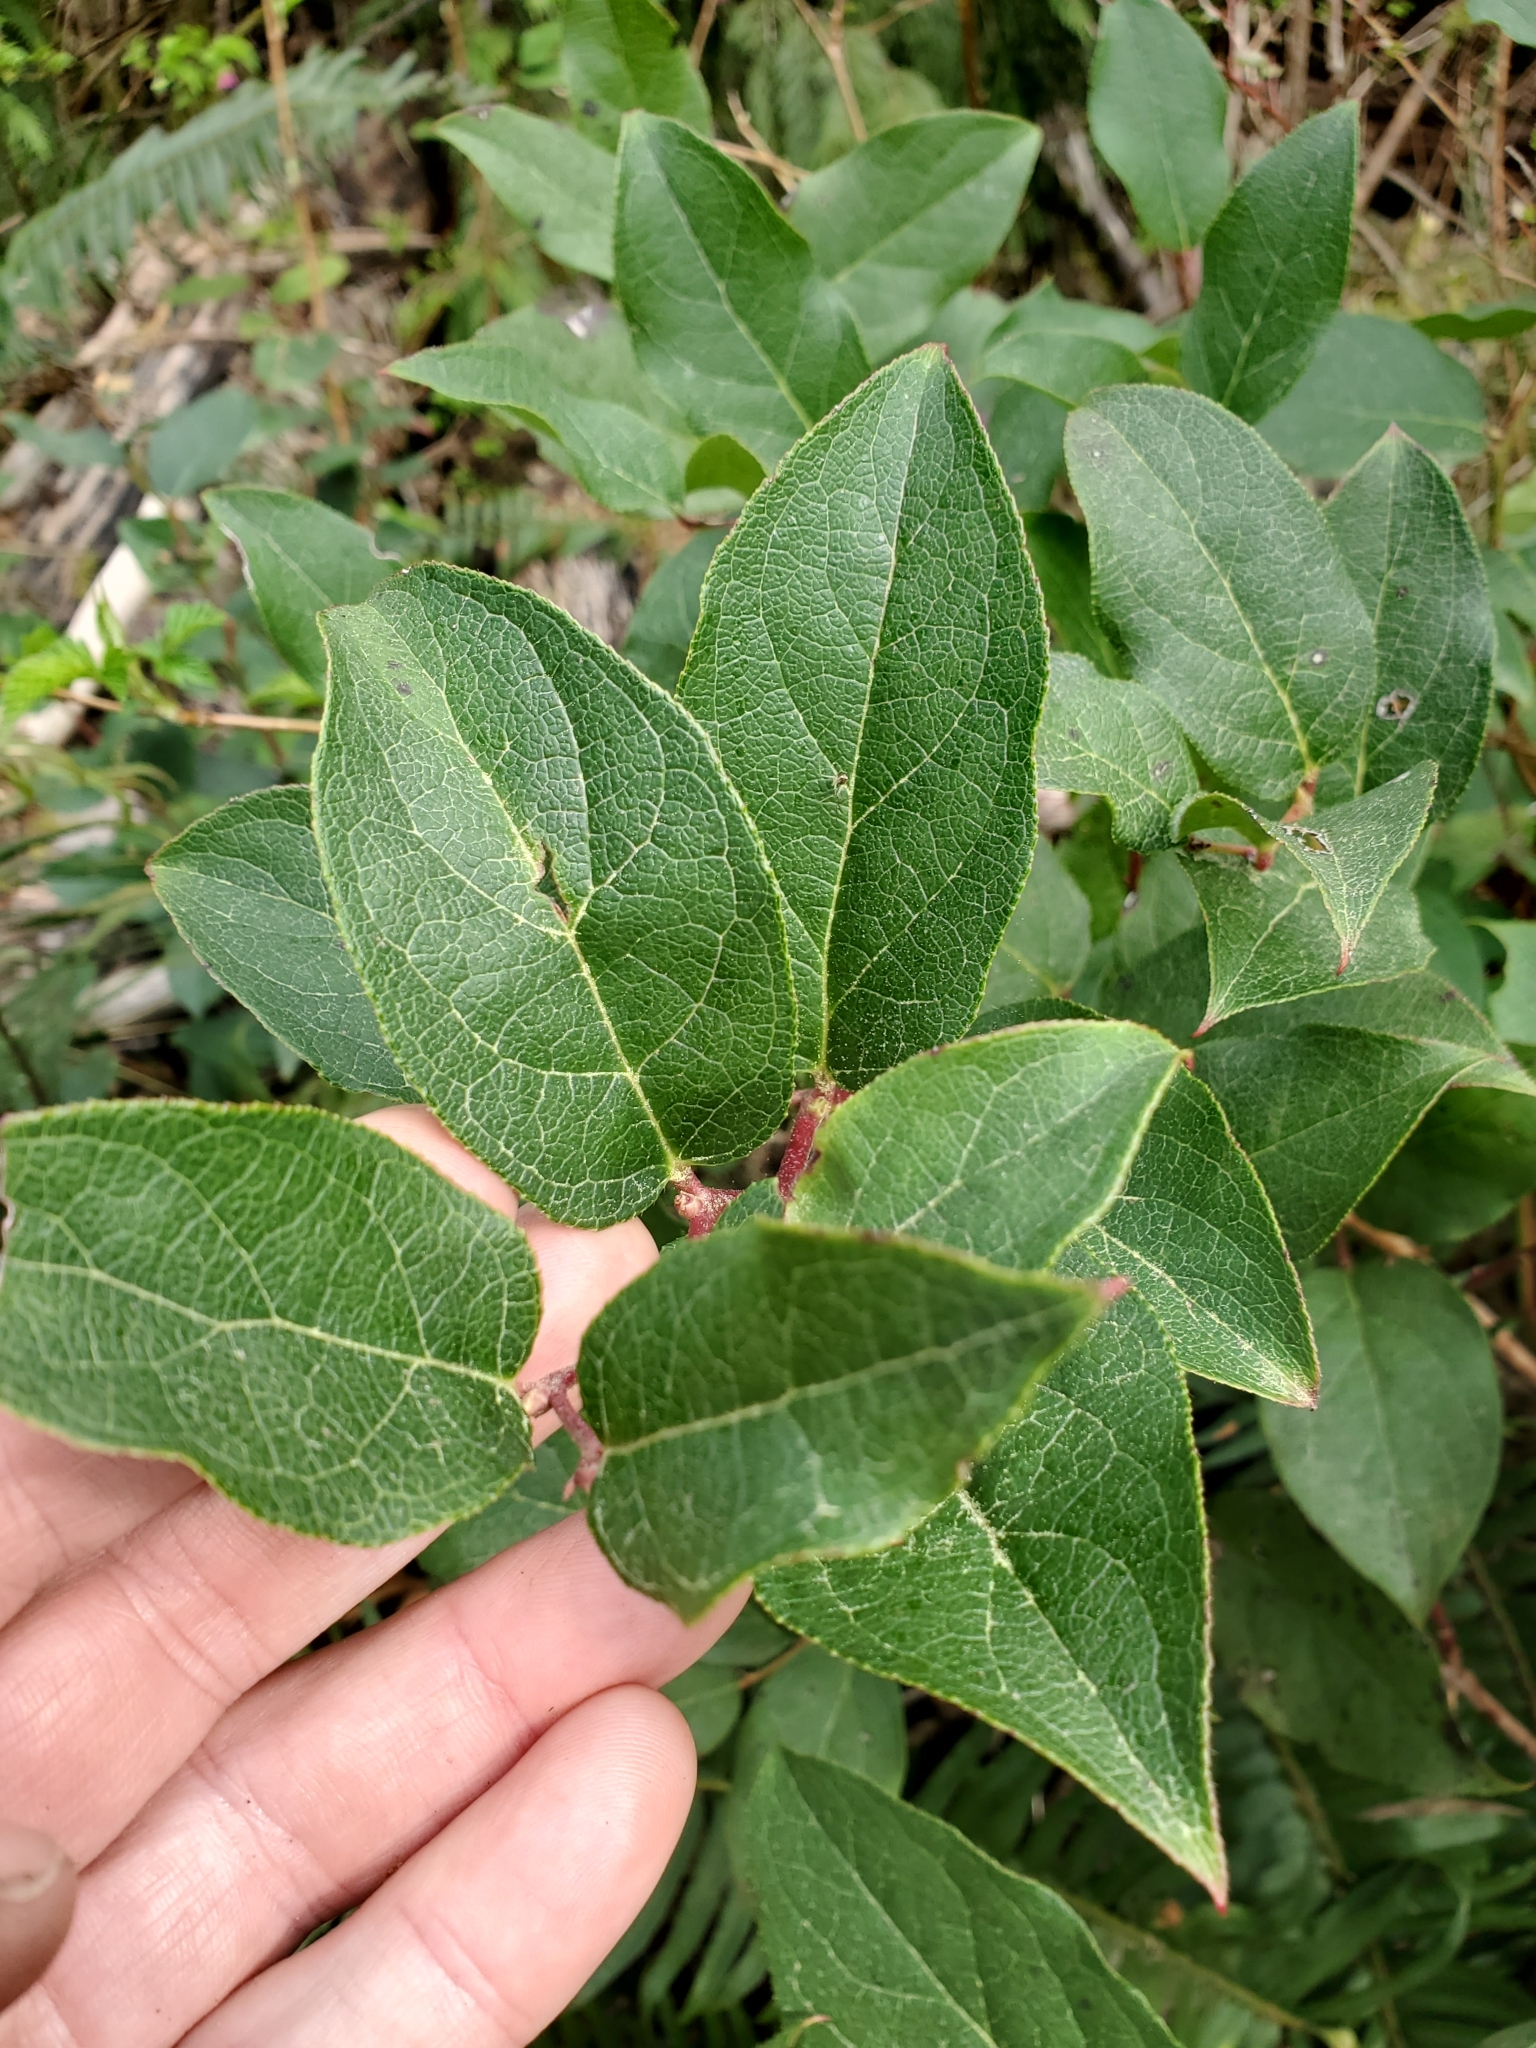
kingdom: Plantae
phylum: Tracheophyta
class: Magnoliopsida
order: Ericales
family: Ericaceae
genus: Gaultheria
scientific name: Gaultheria shallon
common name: Shallon
